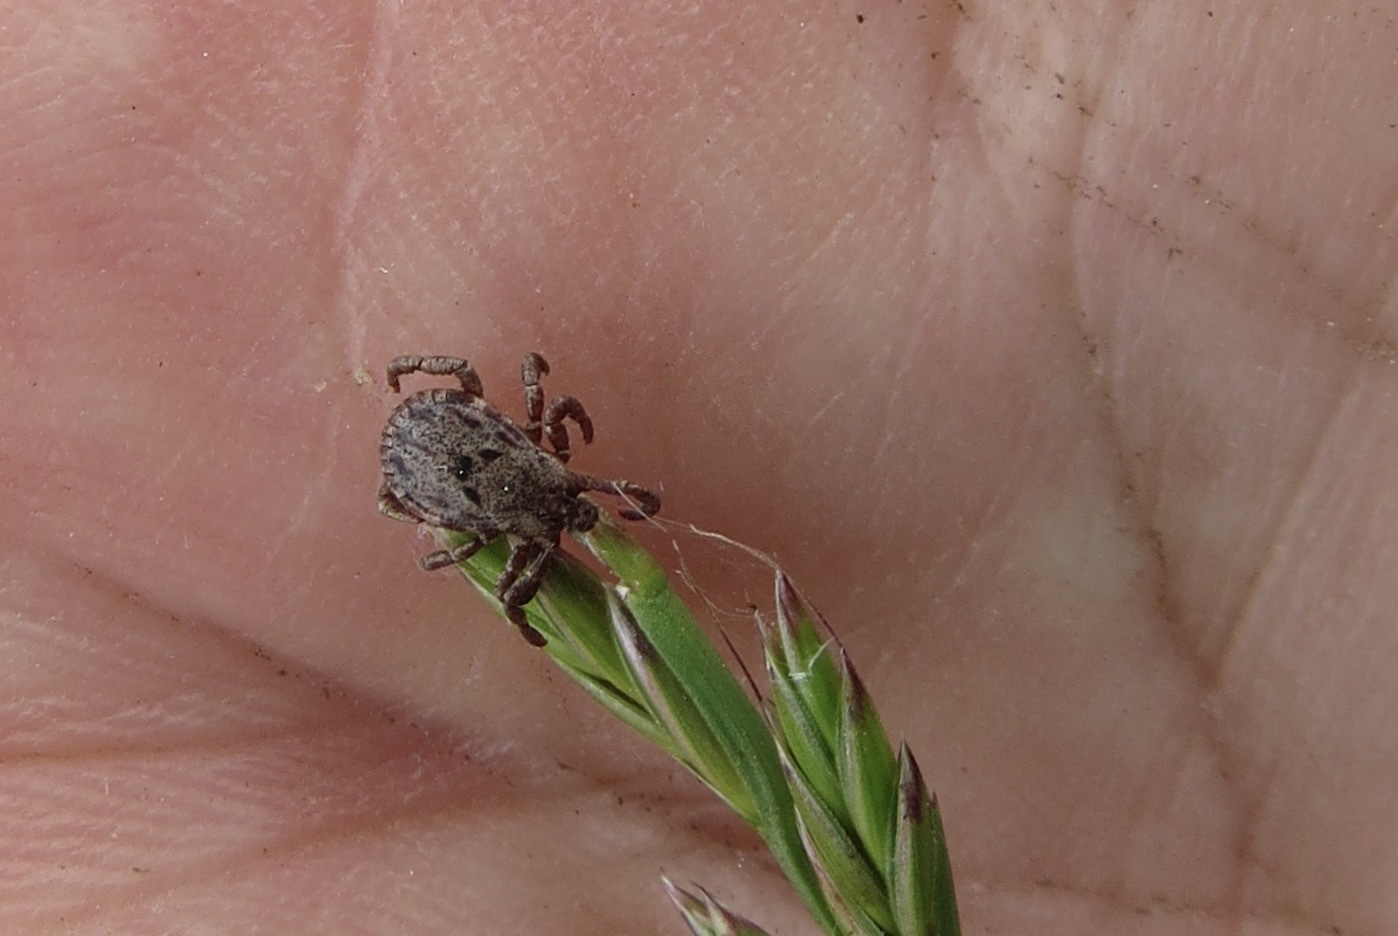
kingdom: Animalia
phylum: Arthropoda
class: Arachnida
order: Ixodida
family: Ixodidae
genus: Dermacentor
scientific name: Dermacentor occidentalis
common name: Net tick
